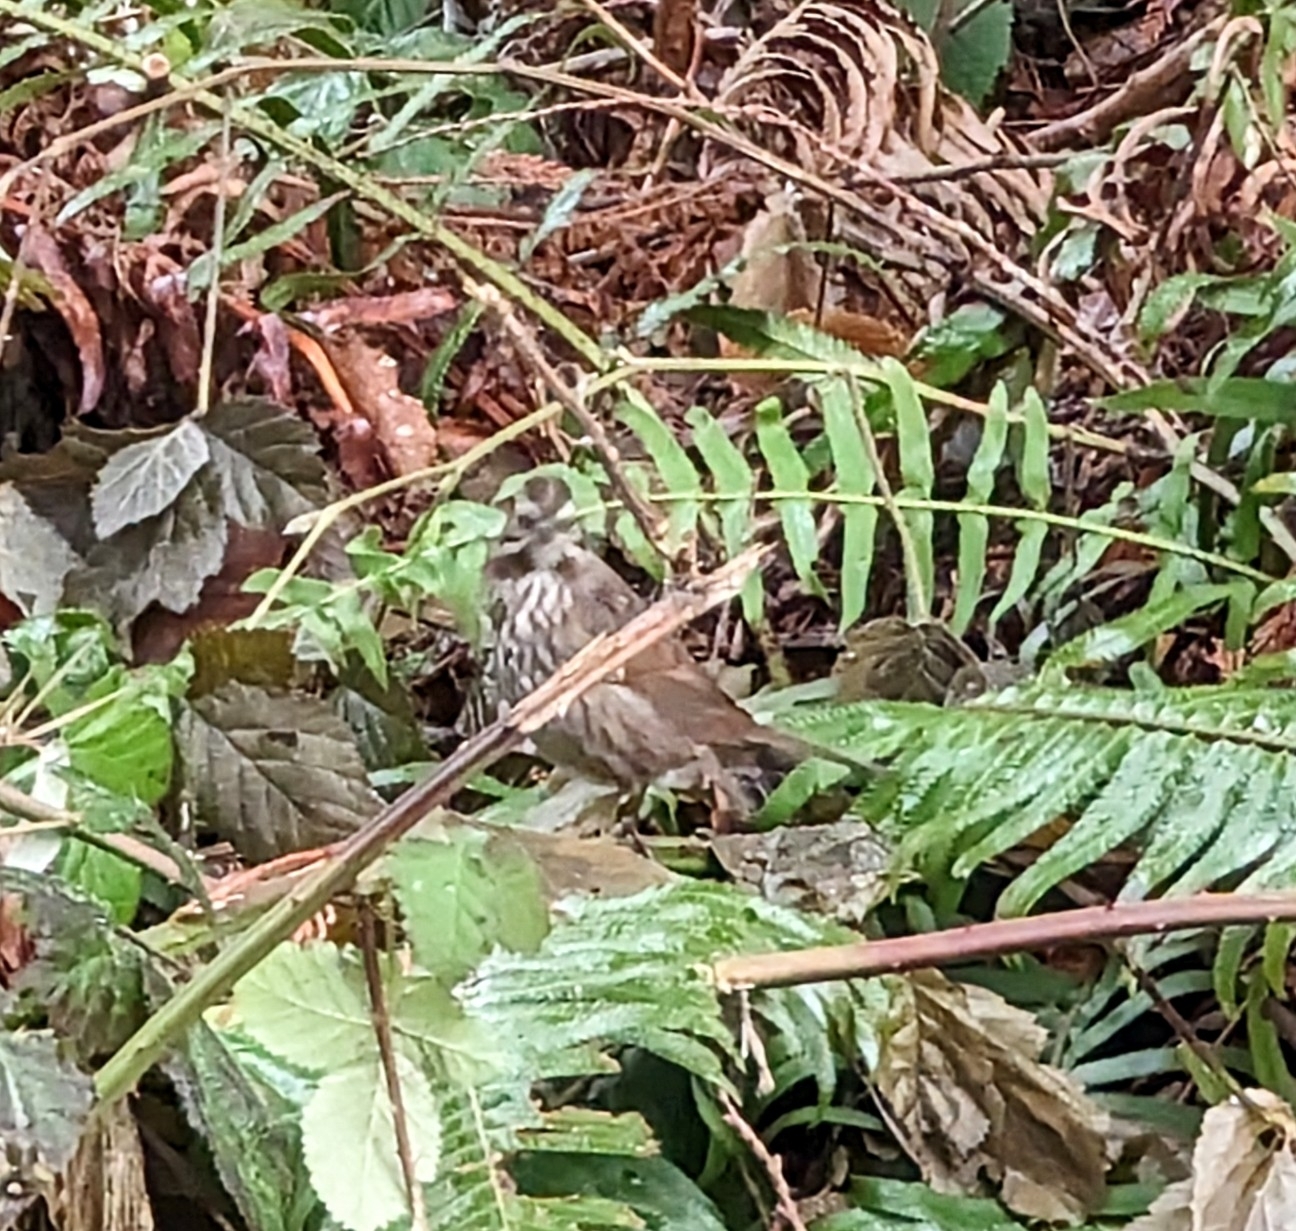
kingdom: Animalia
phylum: Chordata
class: Aves
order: Passeriformes
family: Passerellidae
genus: Melospiza
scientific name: Melospiza melodia
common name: Song sparrow
